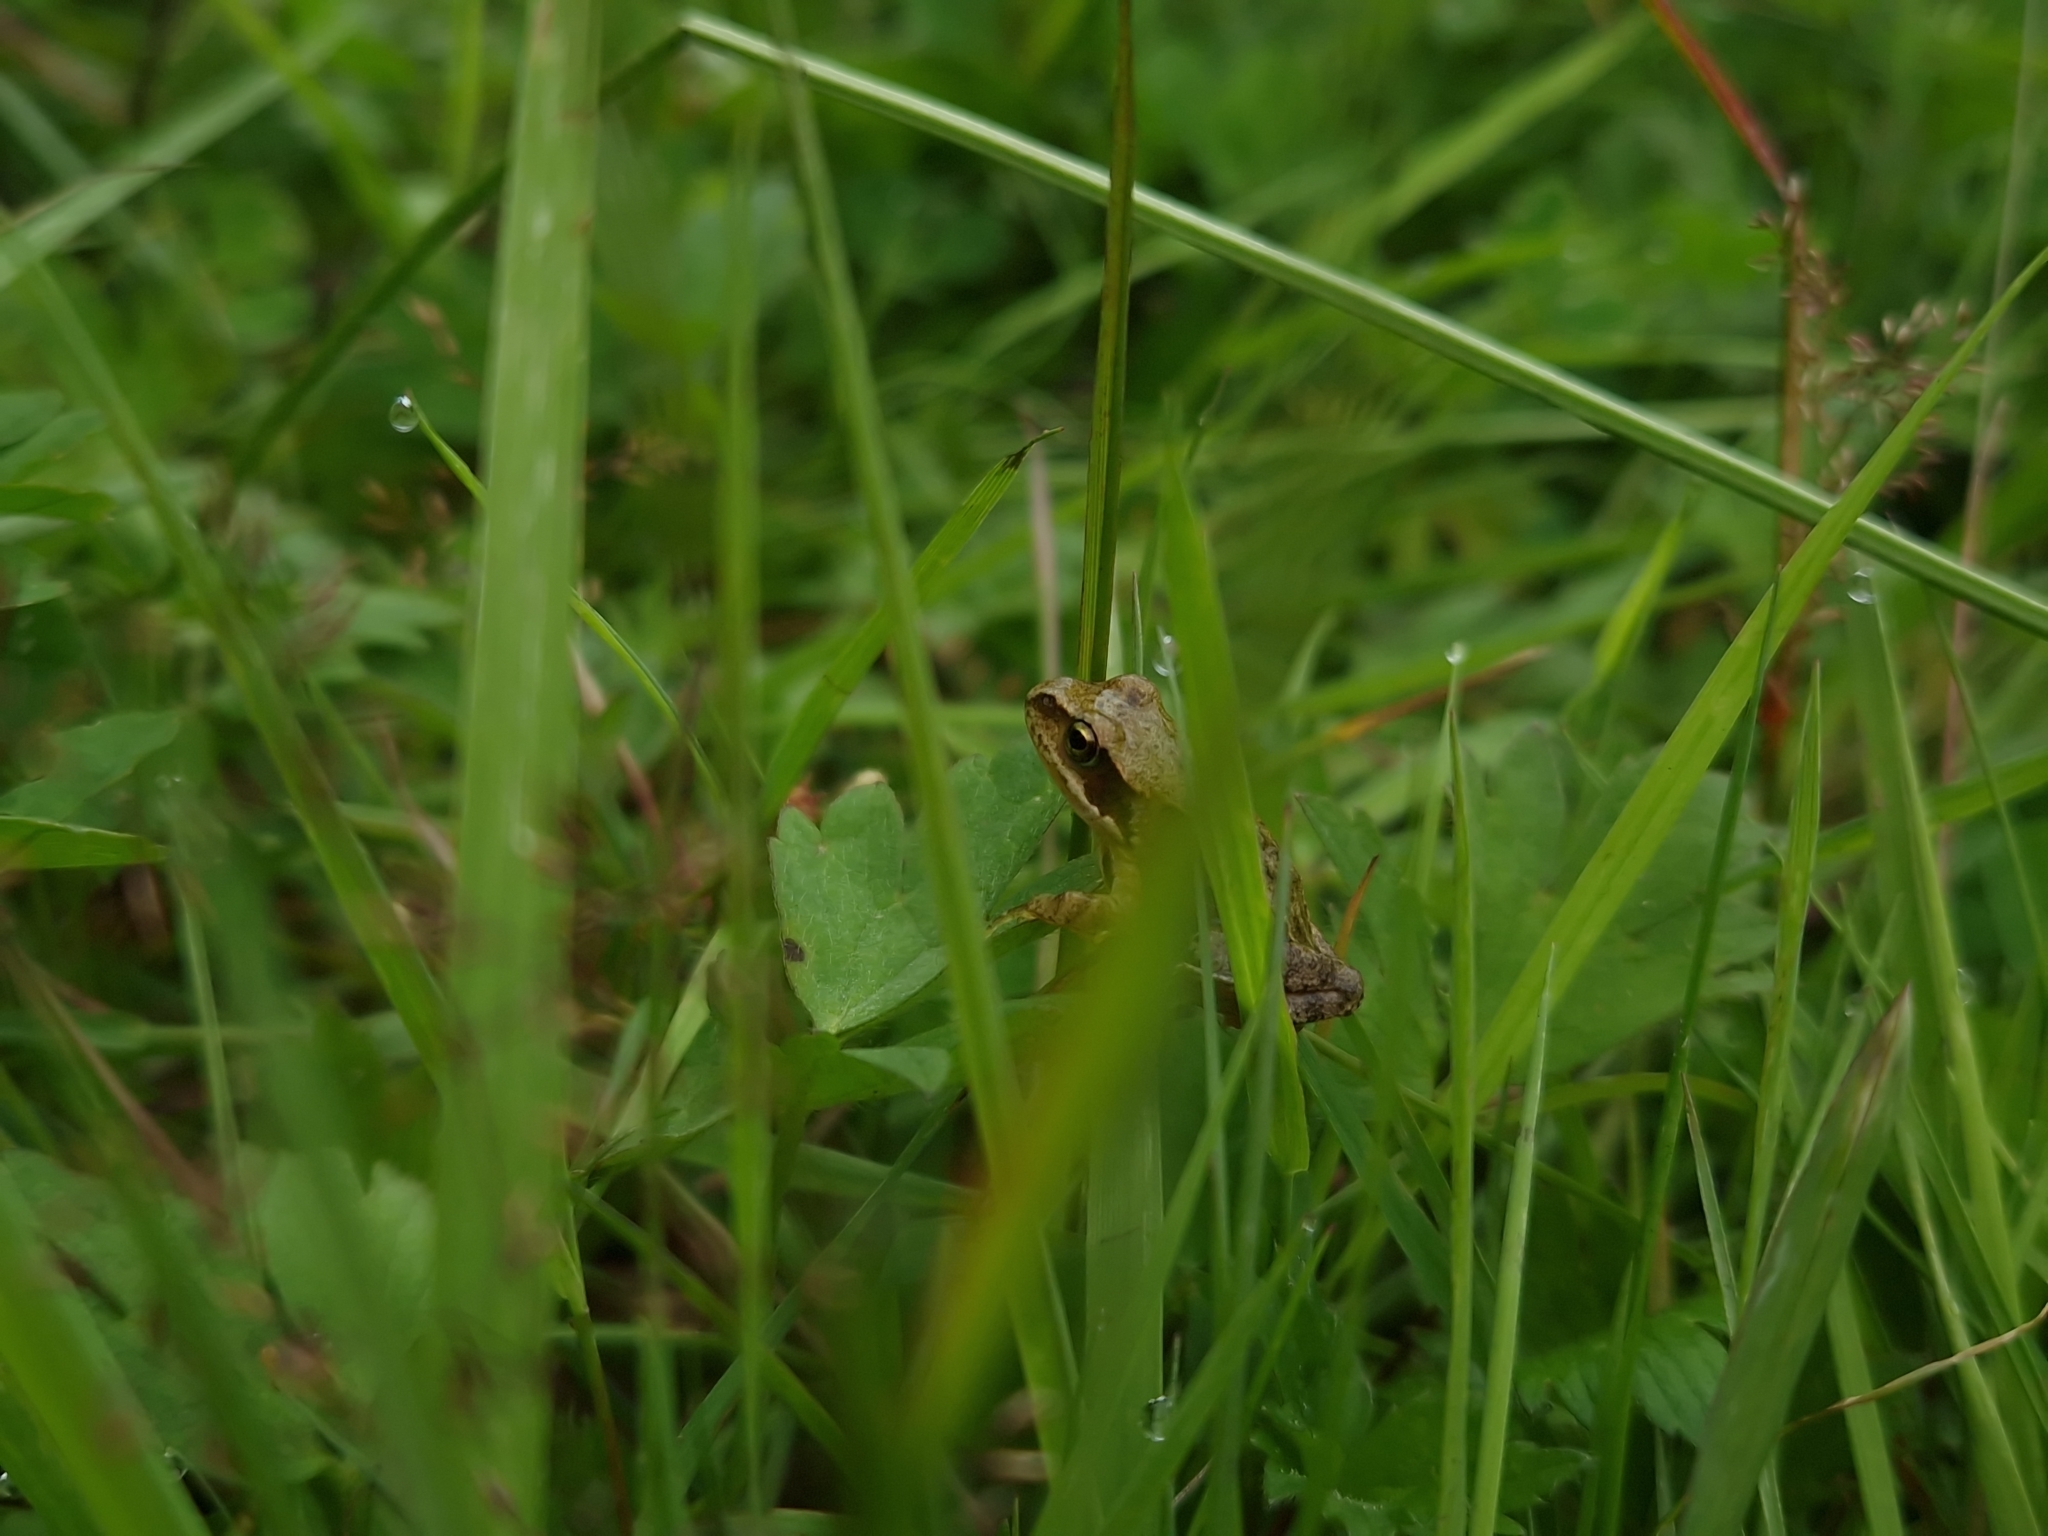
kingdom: Animalia
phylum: Chordata
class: Amphibia
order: Anura
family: Ranidae
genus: Rana
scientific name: Rana temporaria
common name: Common frog
